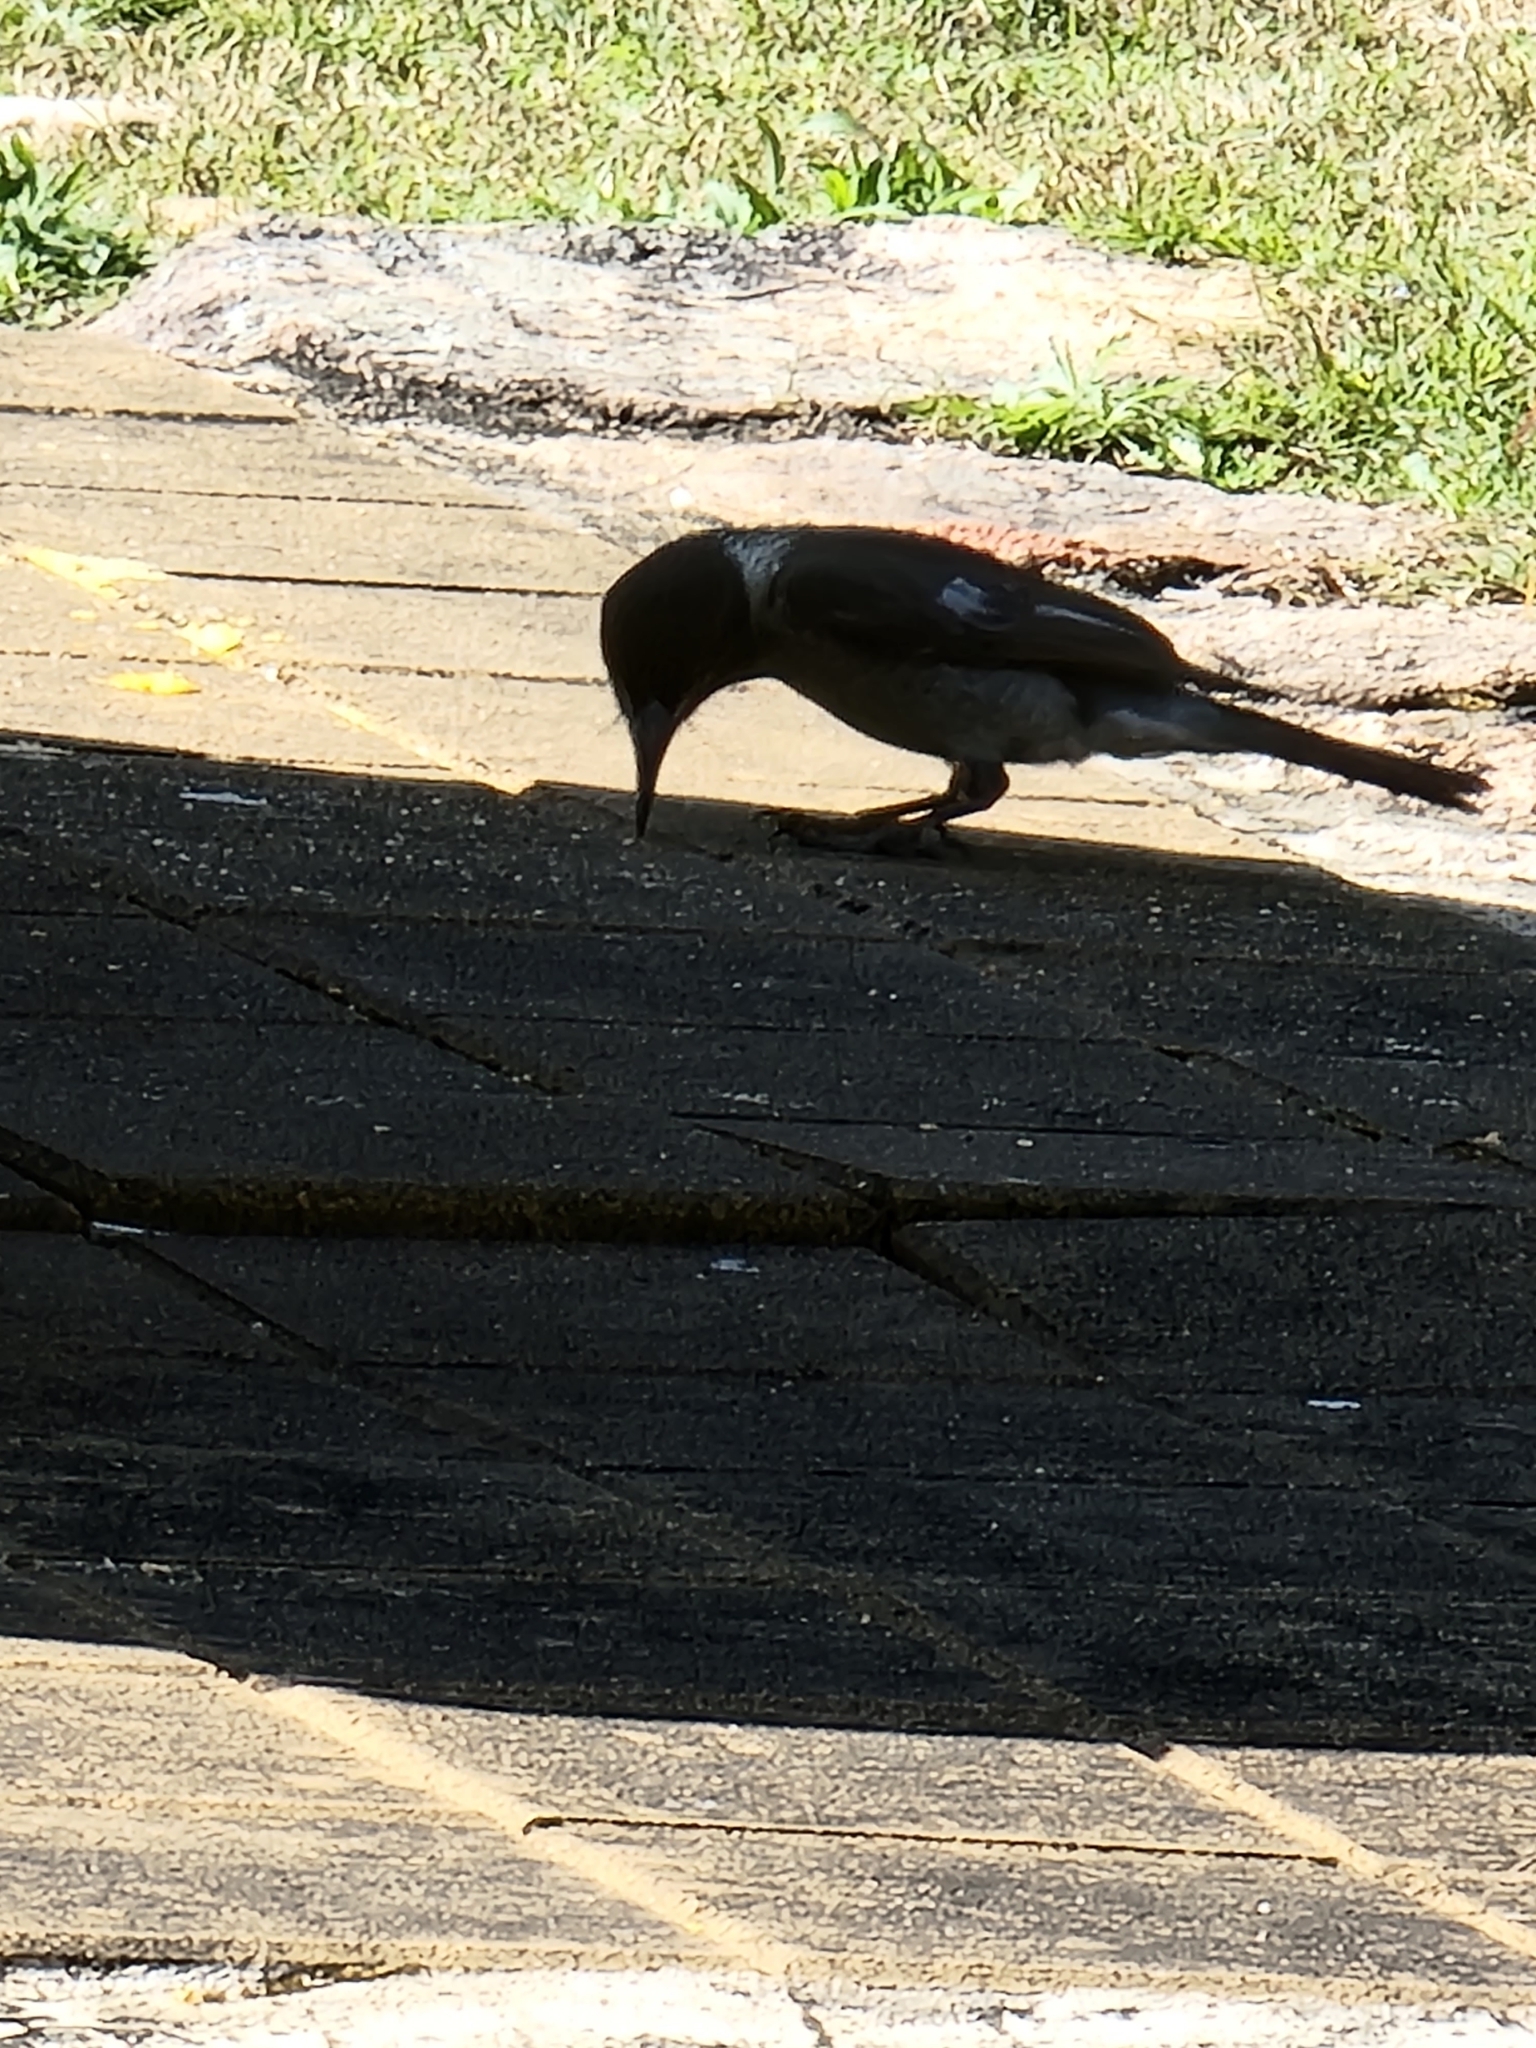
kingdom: Animalia
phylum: Chordata
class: Aves
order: Passeriformes
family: Cracticidae
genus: Cracticus
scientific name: Cracticus torquatus
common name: Grey butcherbird
